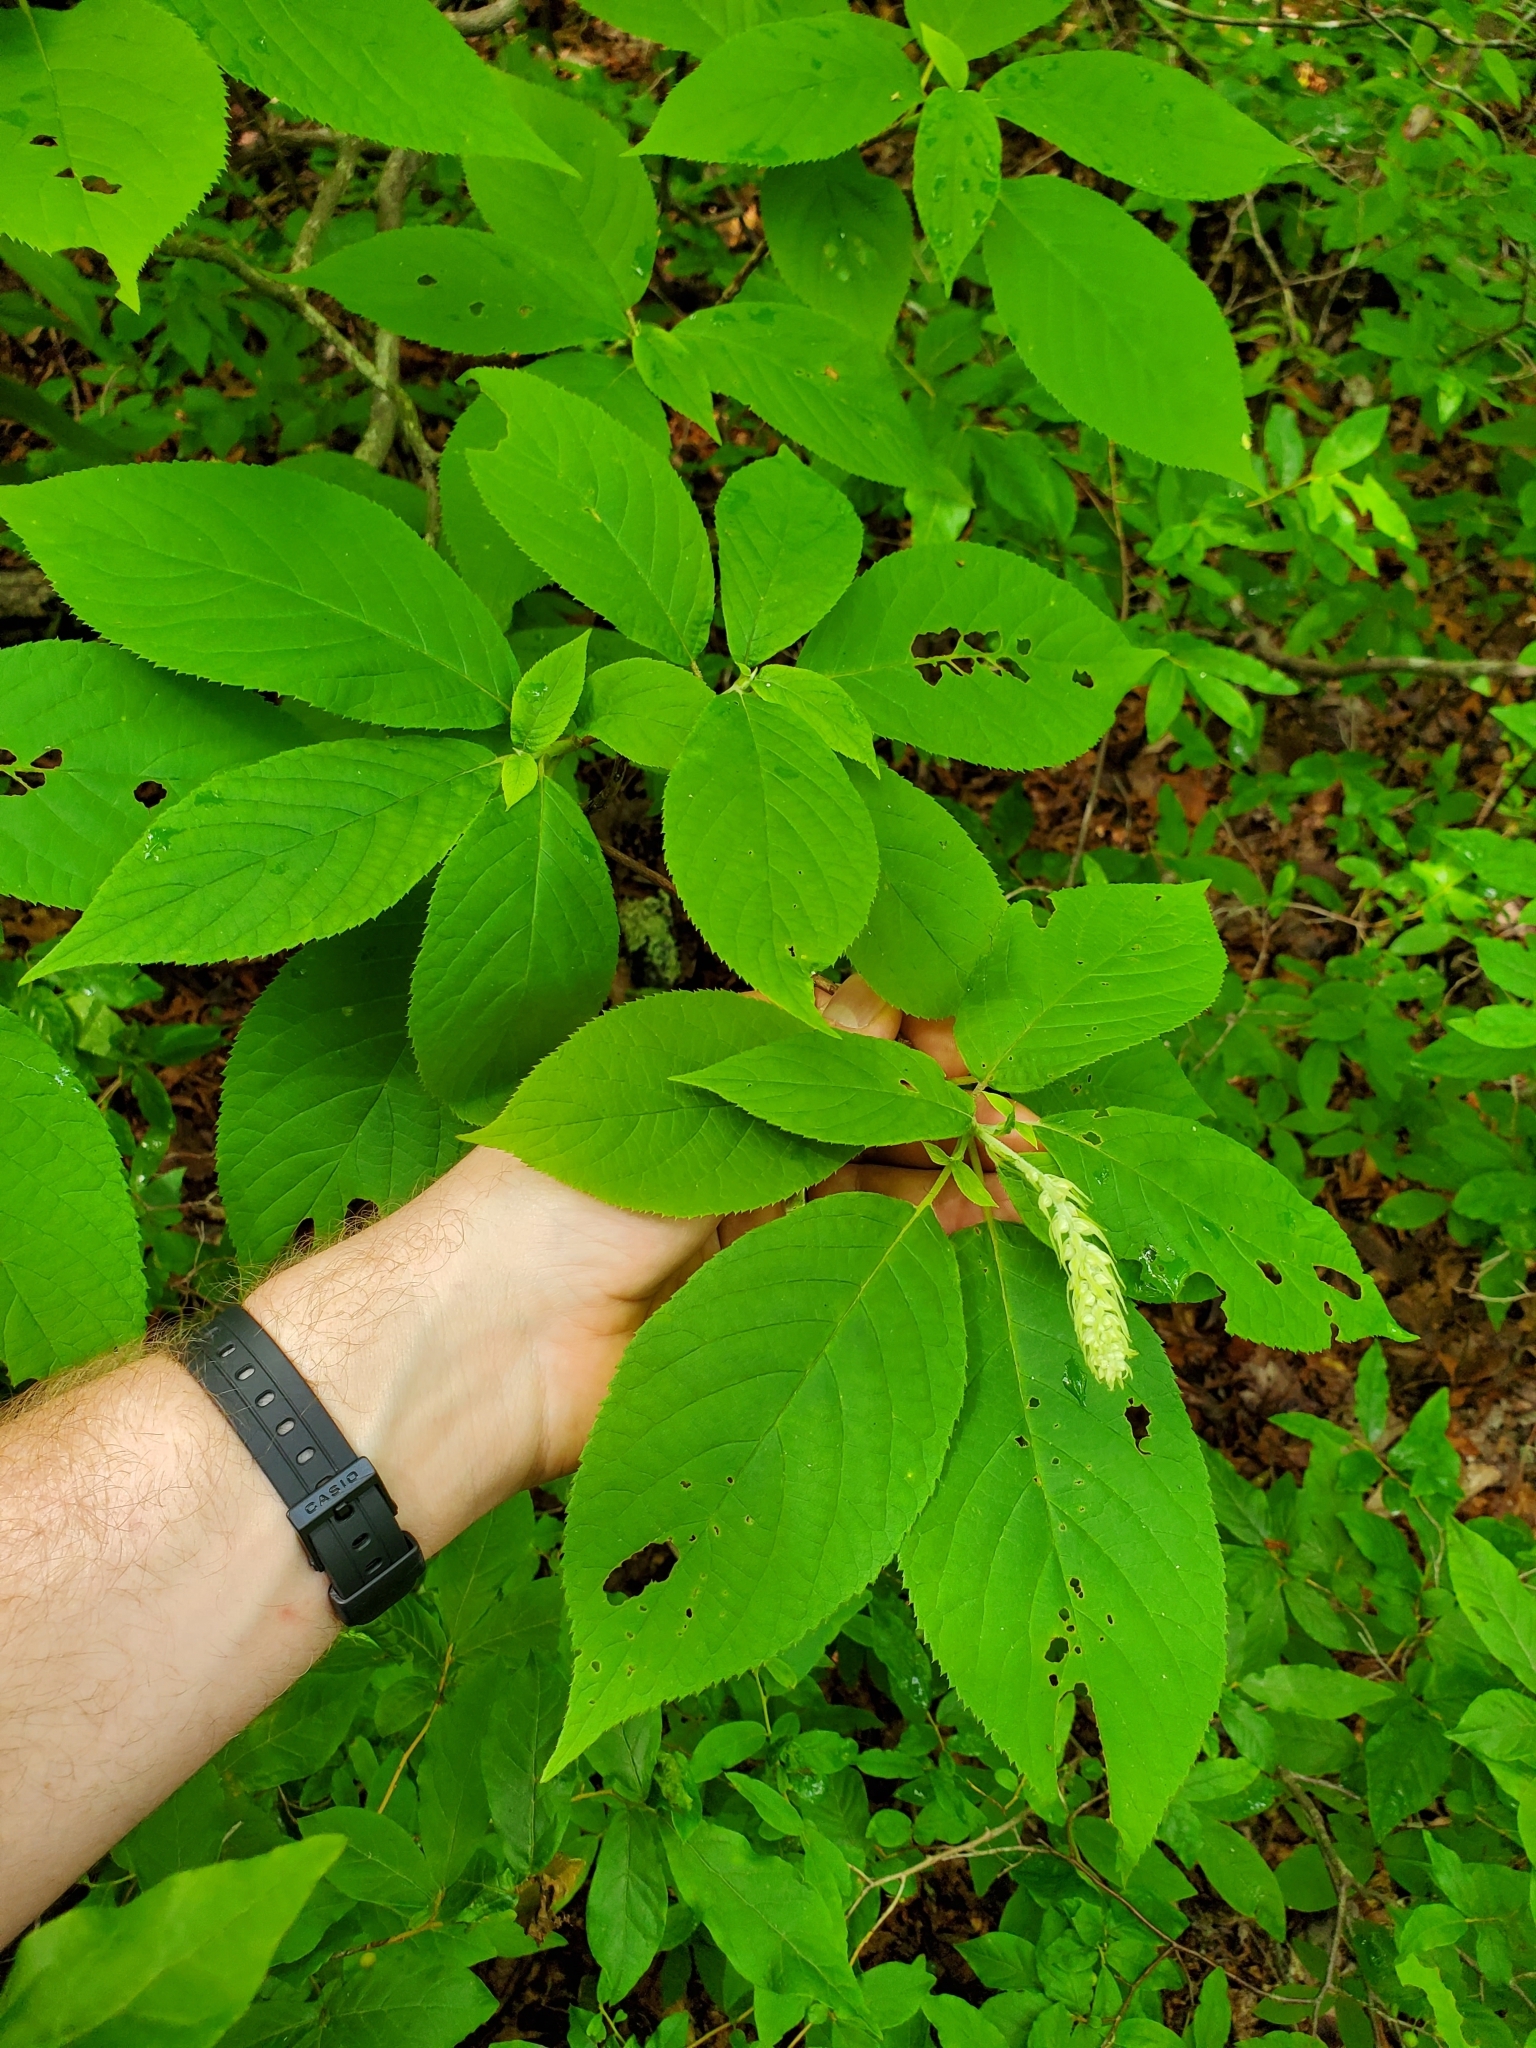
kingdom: Plantae
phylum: Tracheophyta
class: Magnoliopsida
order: Ericales
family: Clethraceae
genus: Clethra
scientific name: Clethra acuminata
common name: Mountain sweet pepperbush
